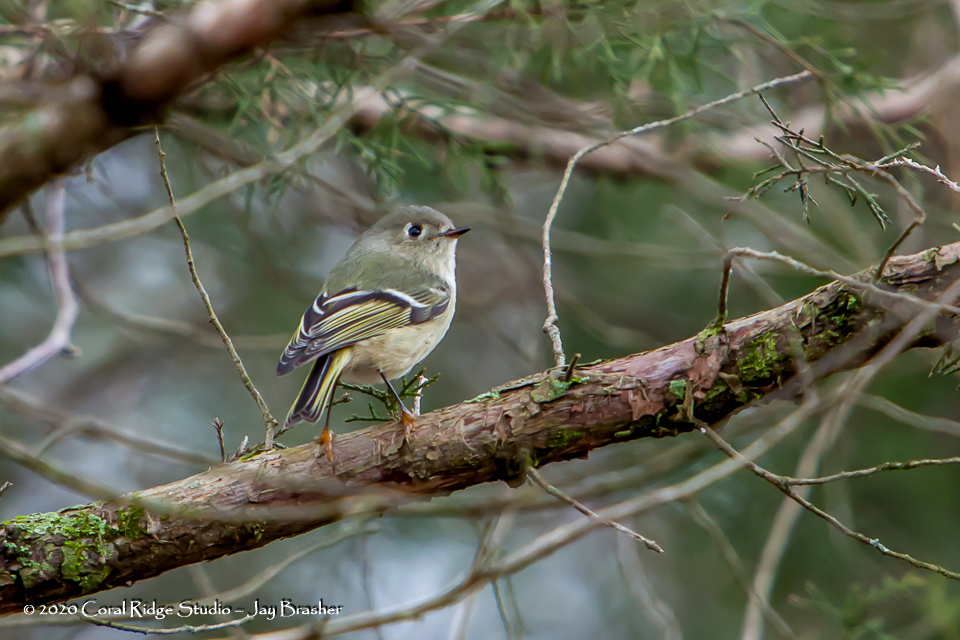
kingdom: Animalia
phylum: Chordata
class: Aves
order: Passeriformes
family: Regulidae
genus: Regulus
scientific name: Regulus calendula
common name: Ruby-crowned kinglet
